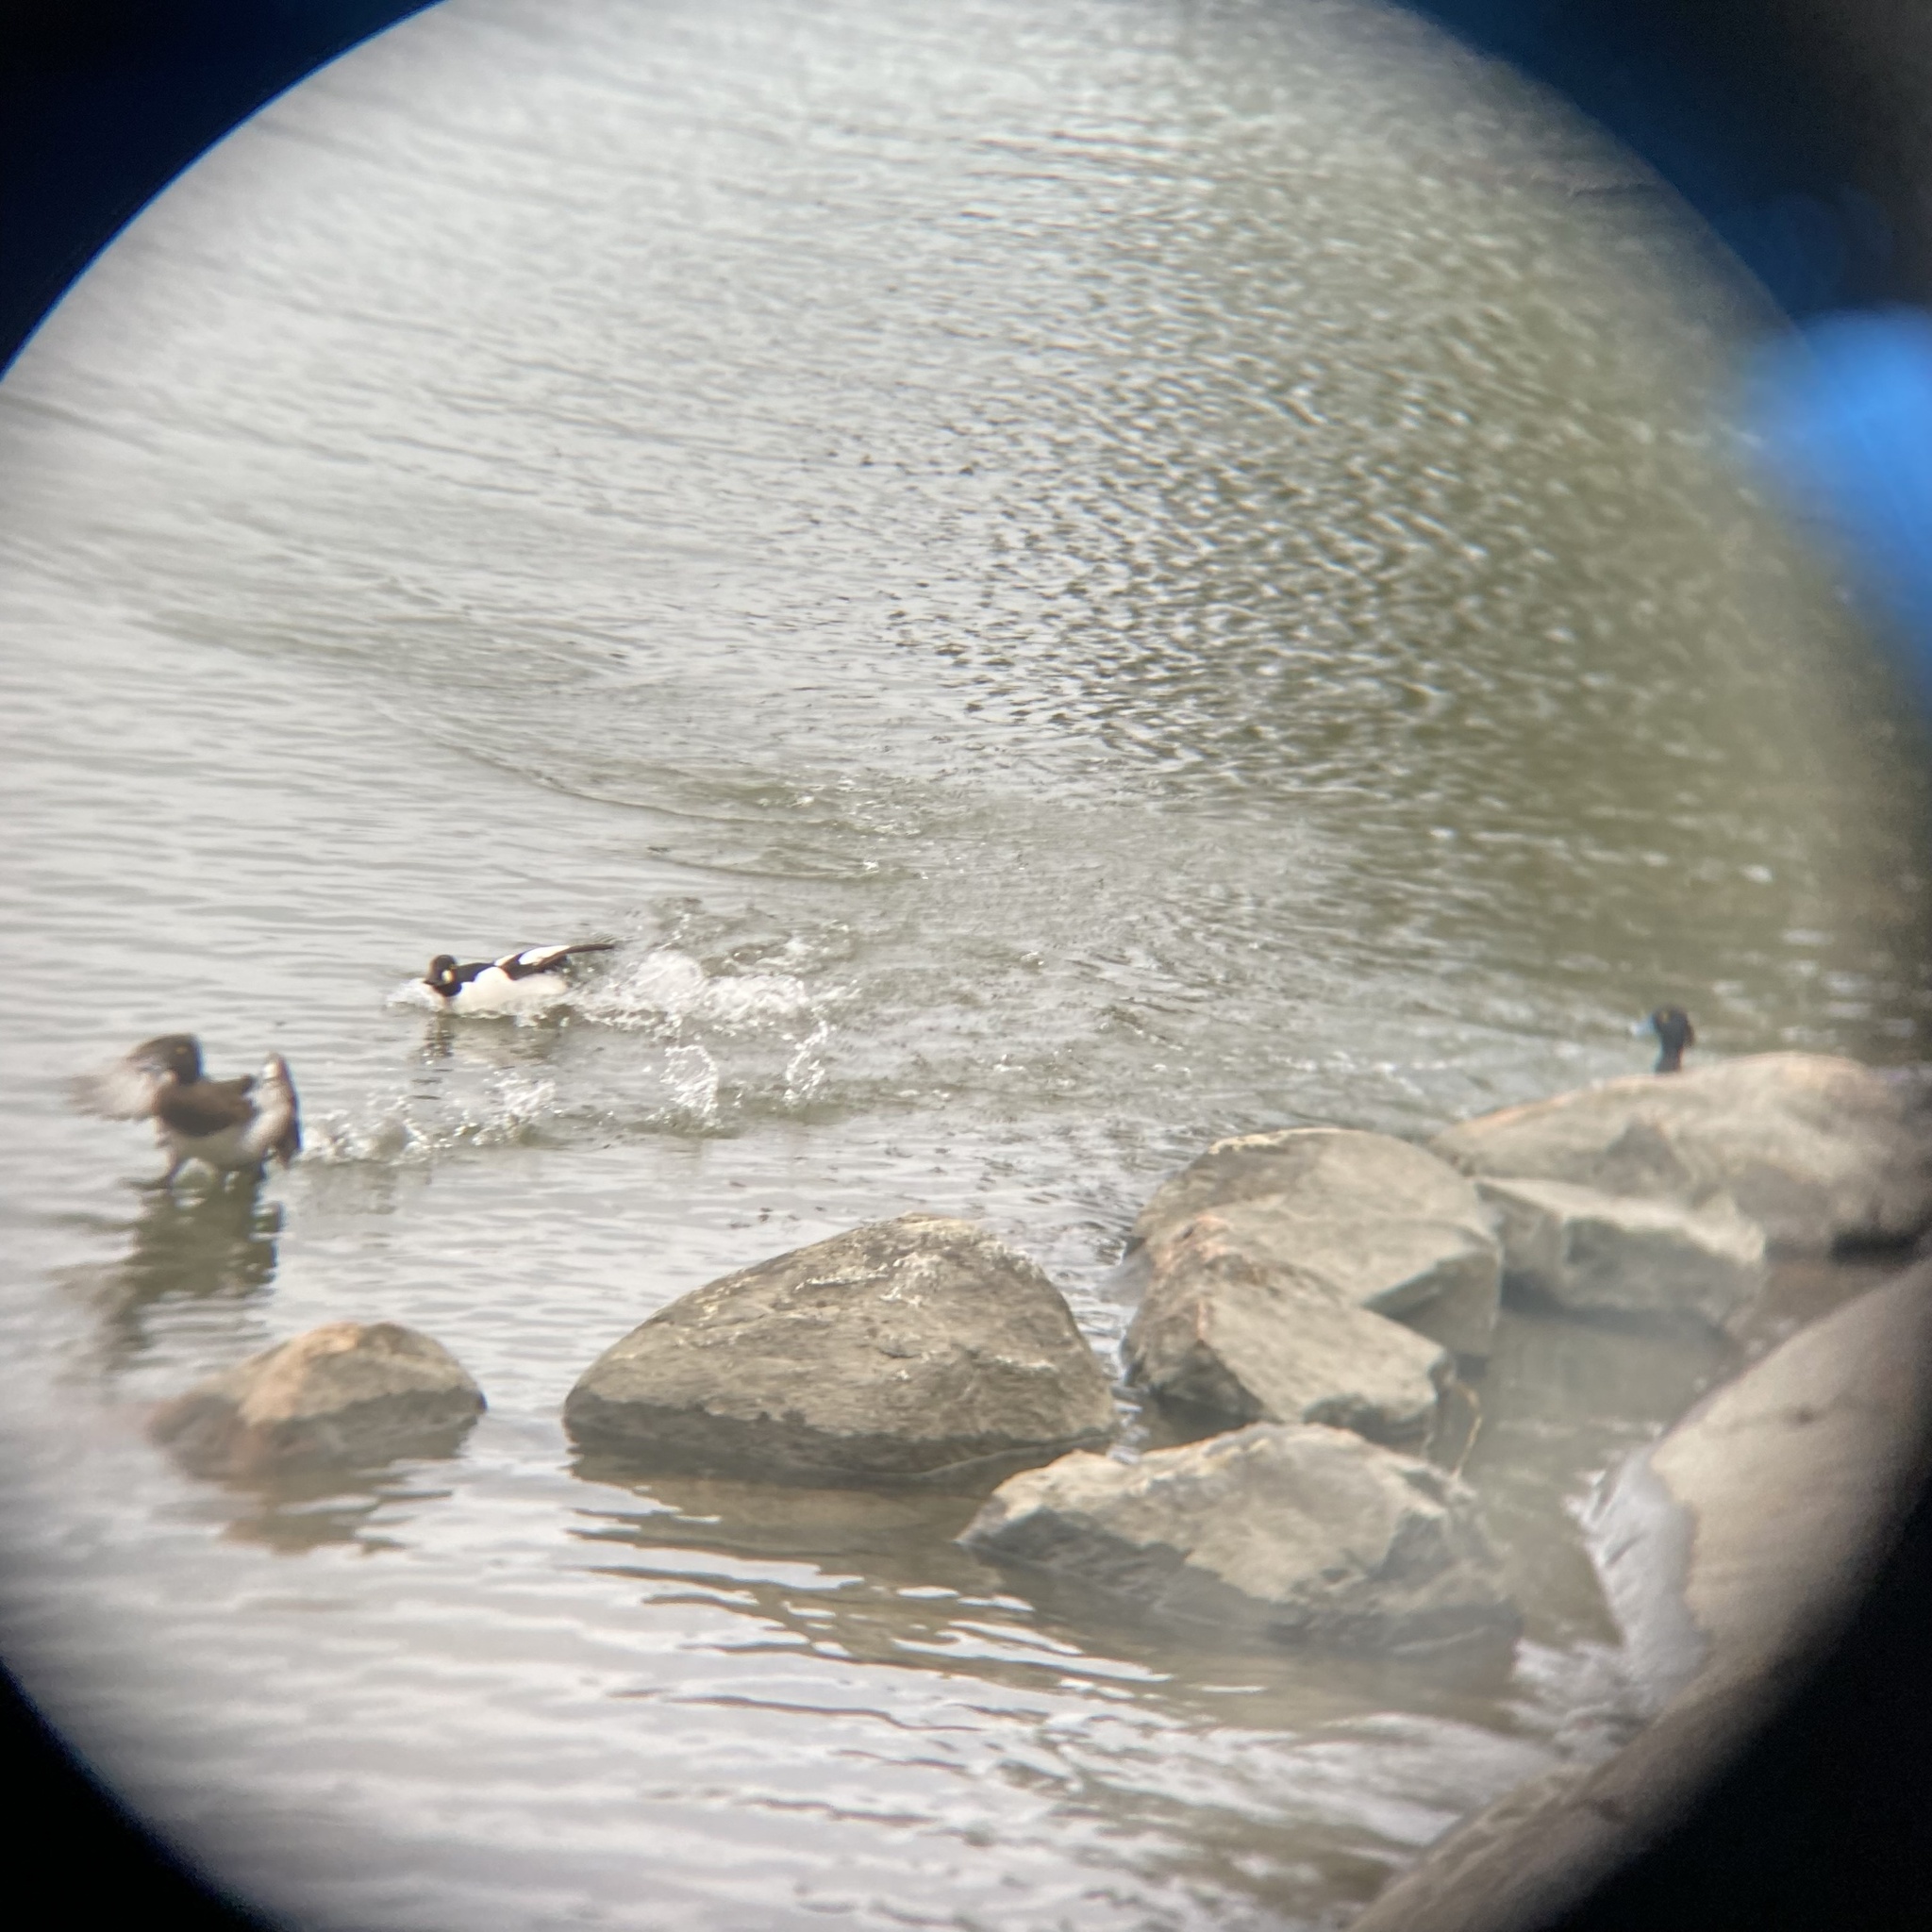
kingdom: Animalia
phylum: Chordata
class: Aves
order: Anseriformes
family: Anatidae
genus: Aythya
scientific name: Aythya fuligula
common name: Tufted duck
